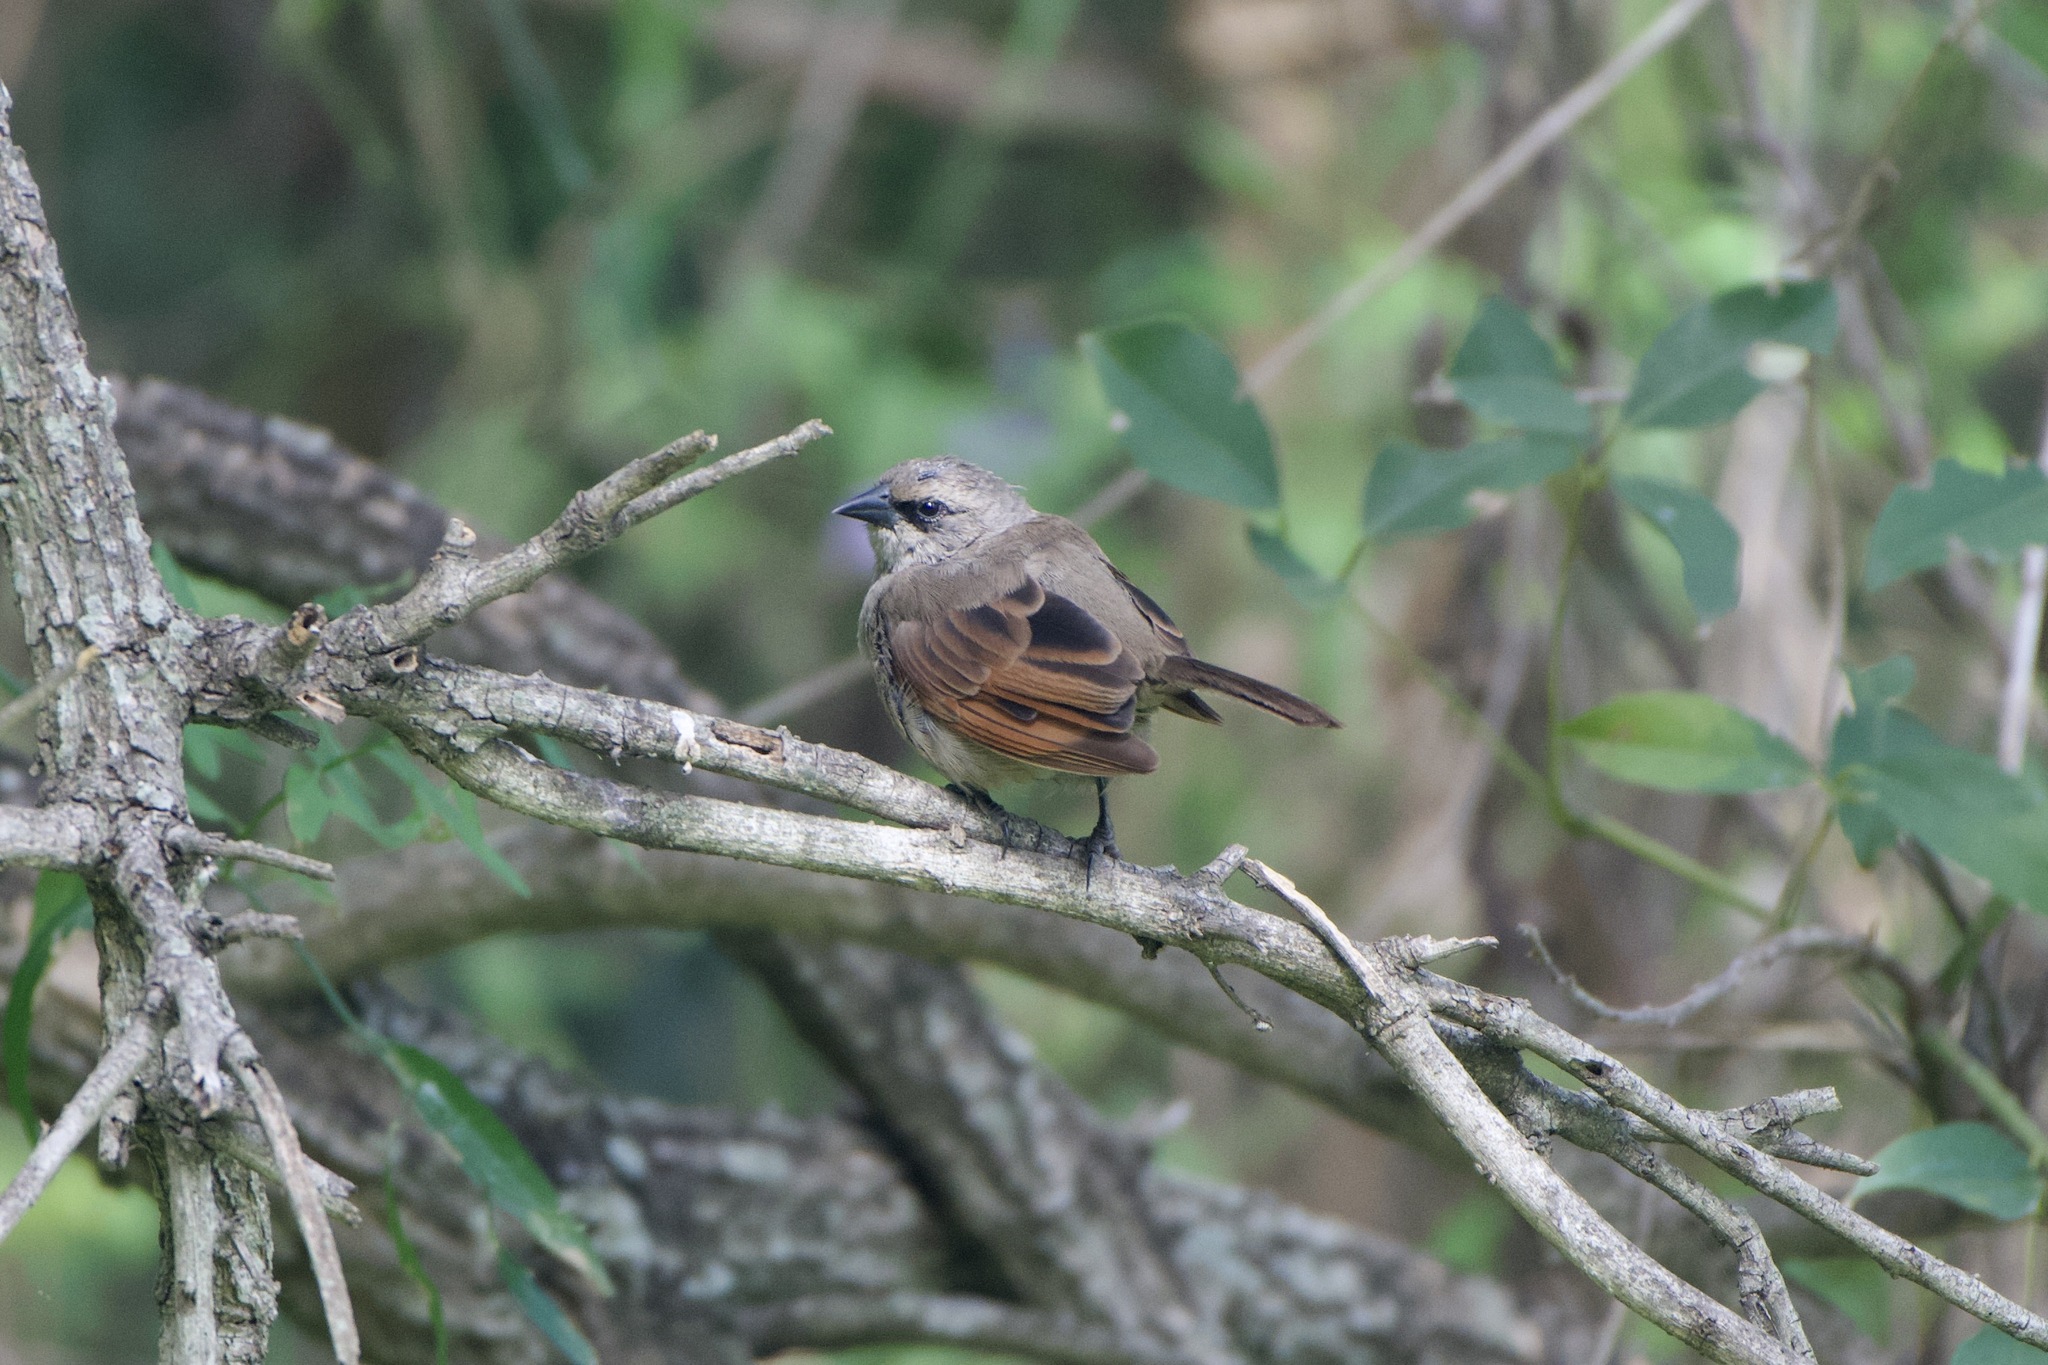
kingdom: Animalia
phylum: Chordata
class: Aves
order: Passeriformes
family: Icteridae
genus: Agelaioides
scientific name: Agelaioides badius
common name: Baywing
